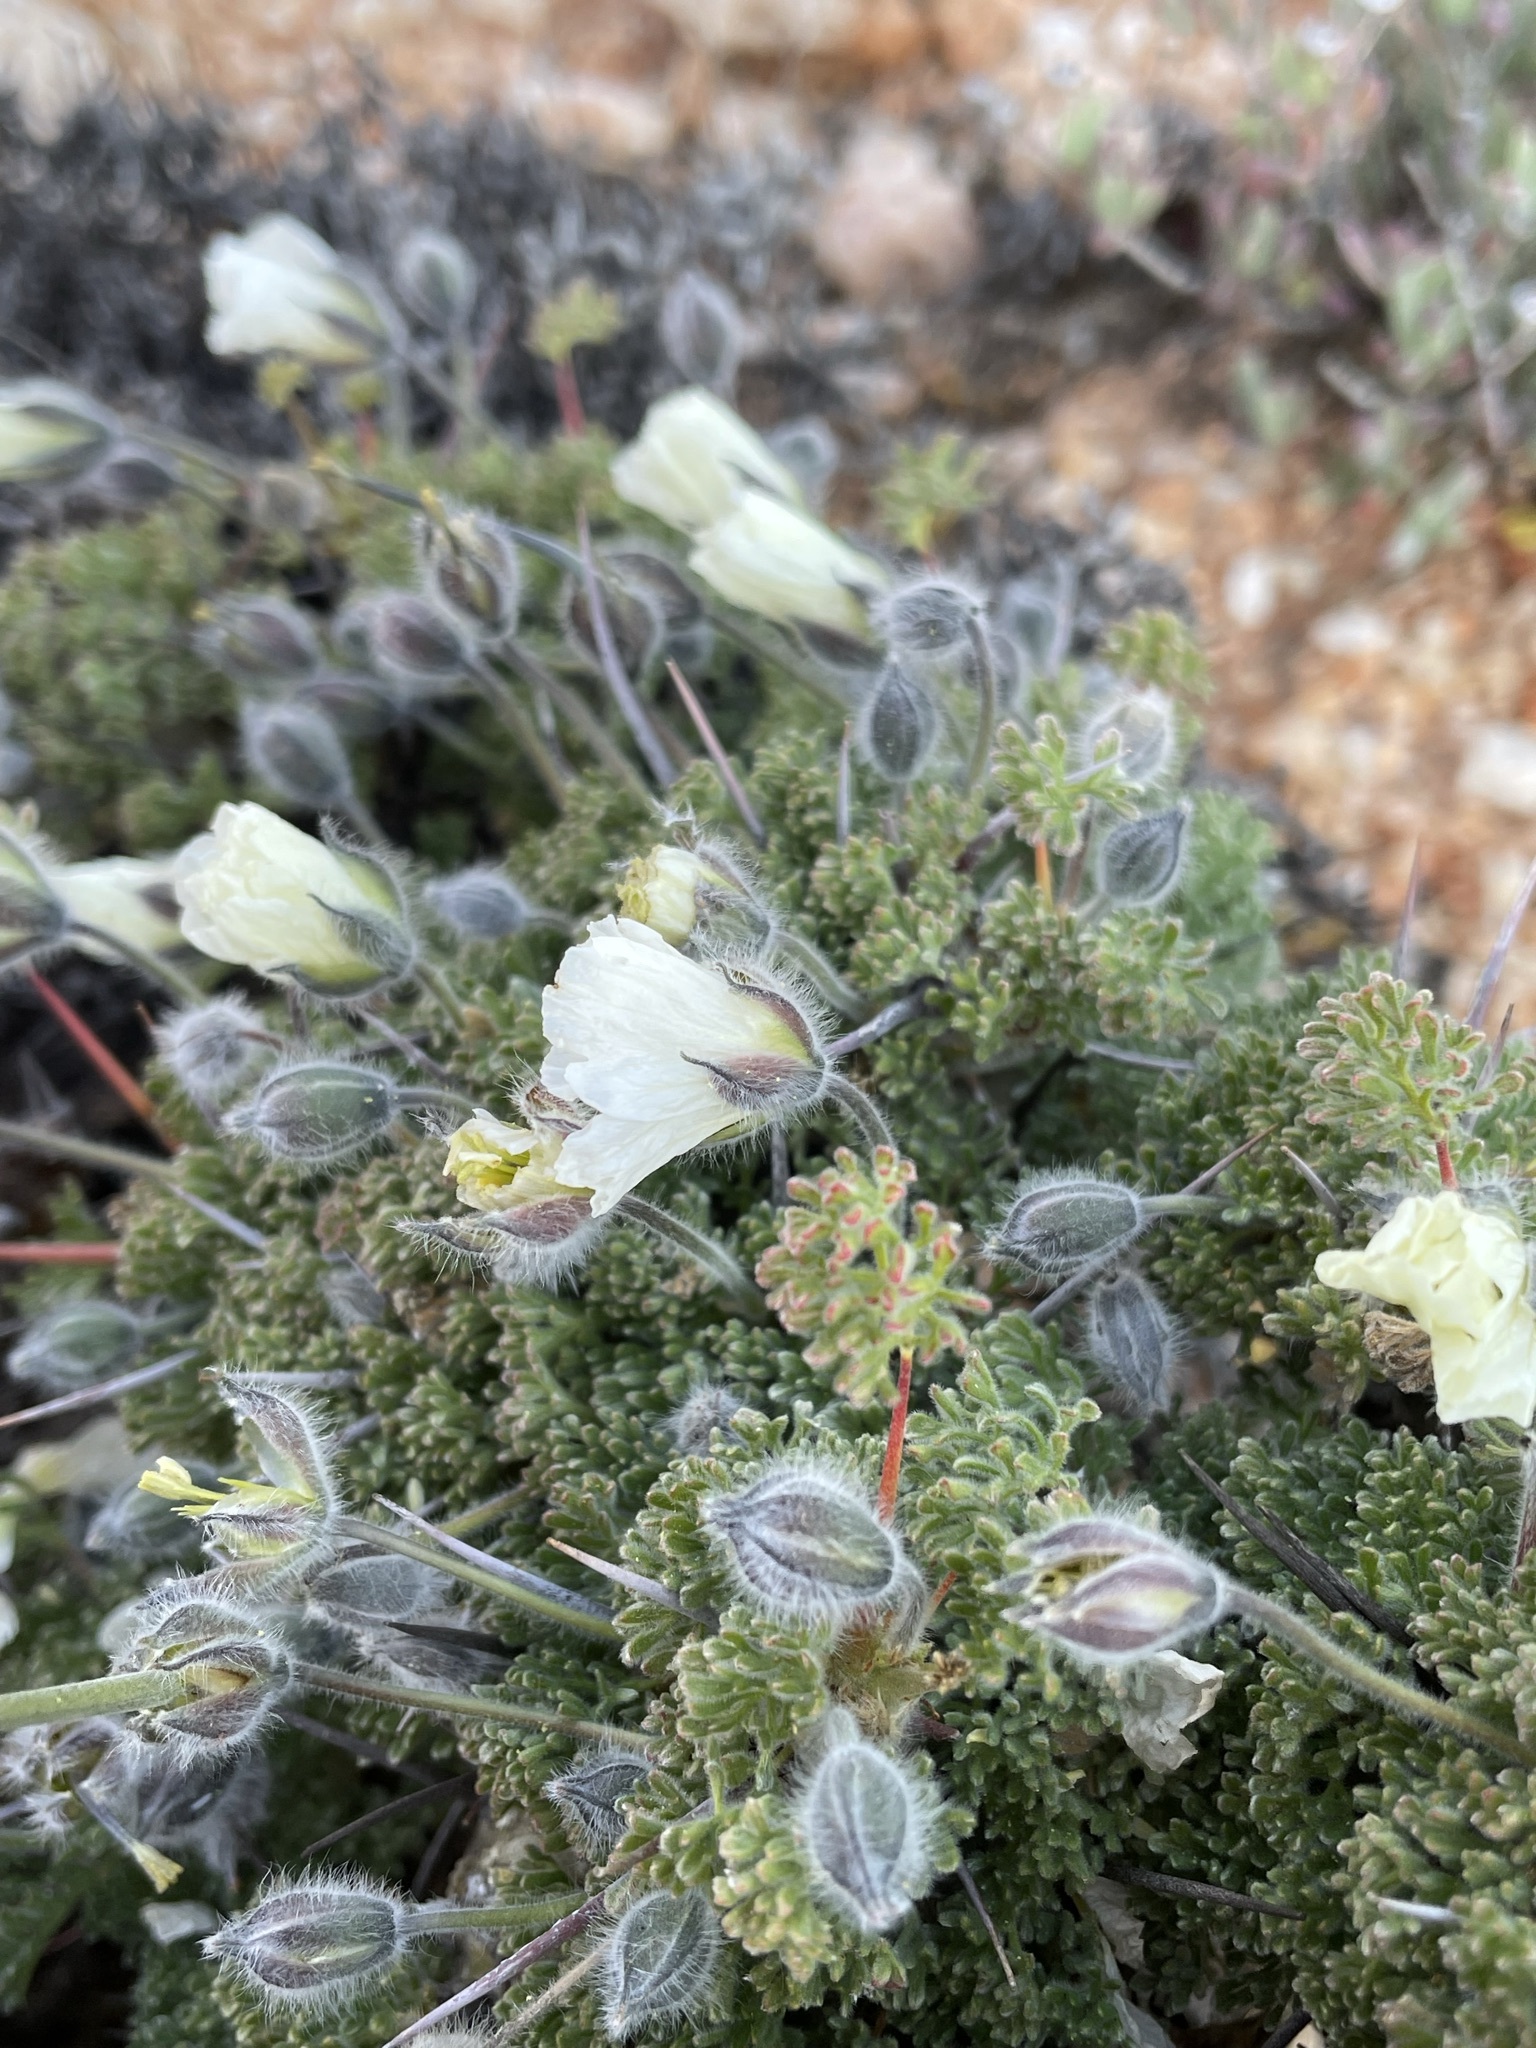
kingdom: Plantae
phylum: Tracheophyta
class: Magnoliopsida
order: Geraniales
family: Geraniaceae
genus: Monsonia
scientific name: Monsonia herrei
